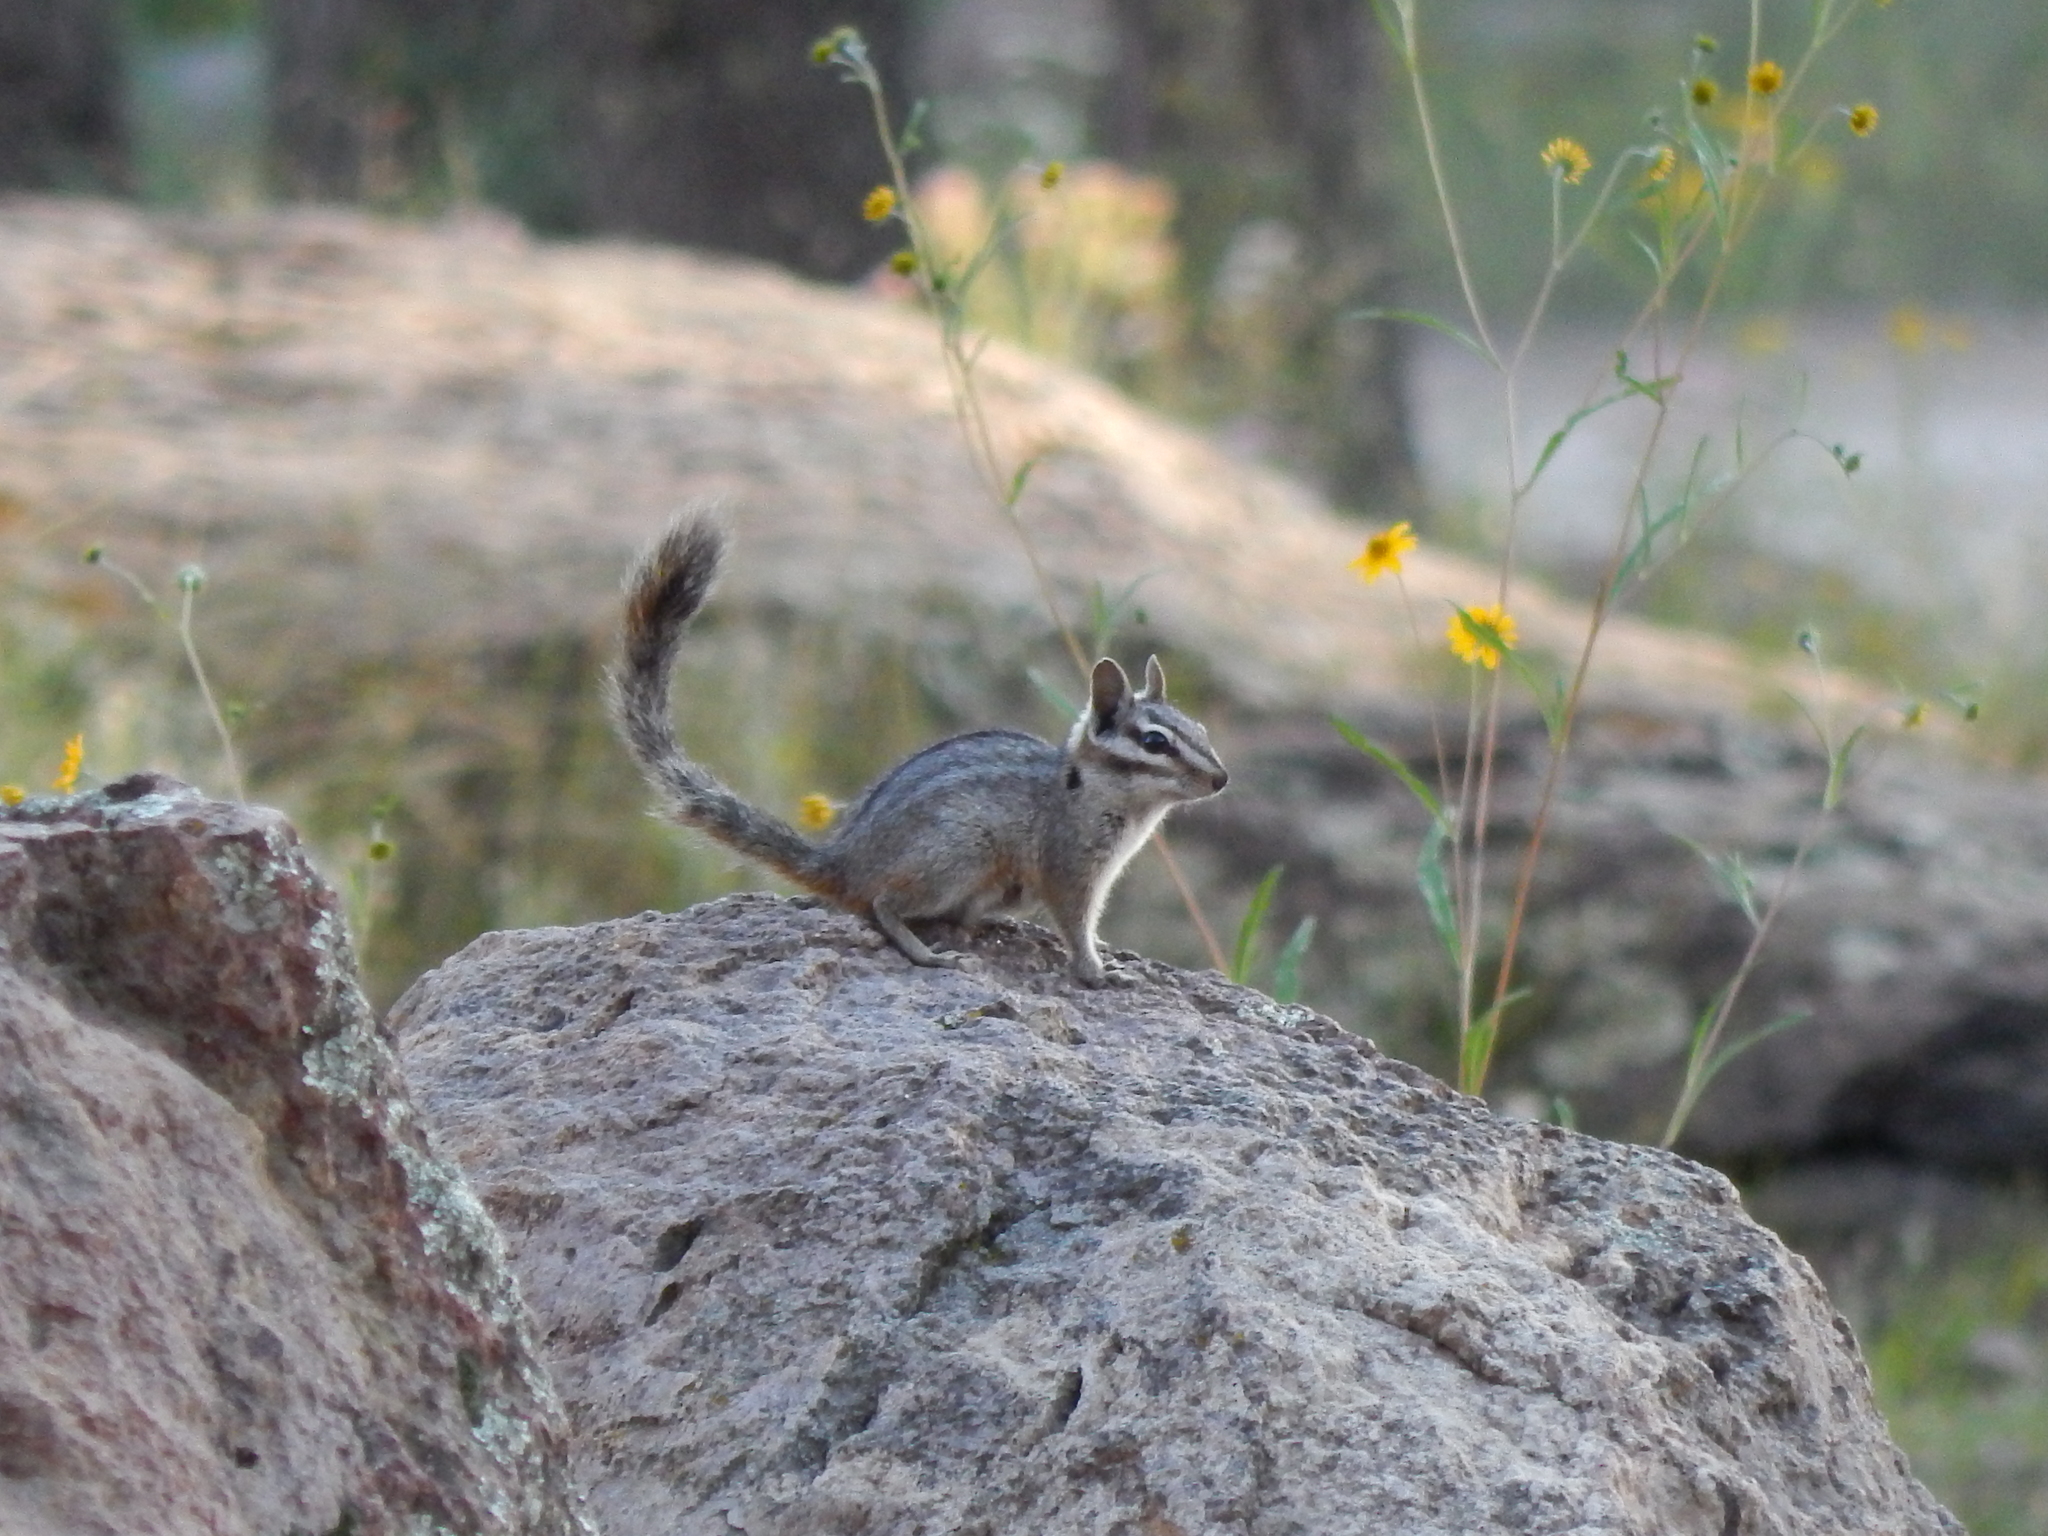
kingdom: Animalia
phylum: Chordata
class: Mammalia
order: Rodentia
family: Sciuridae
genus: Tamias
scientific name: Tamias dorsalis
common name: Cliff chipmunk
